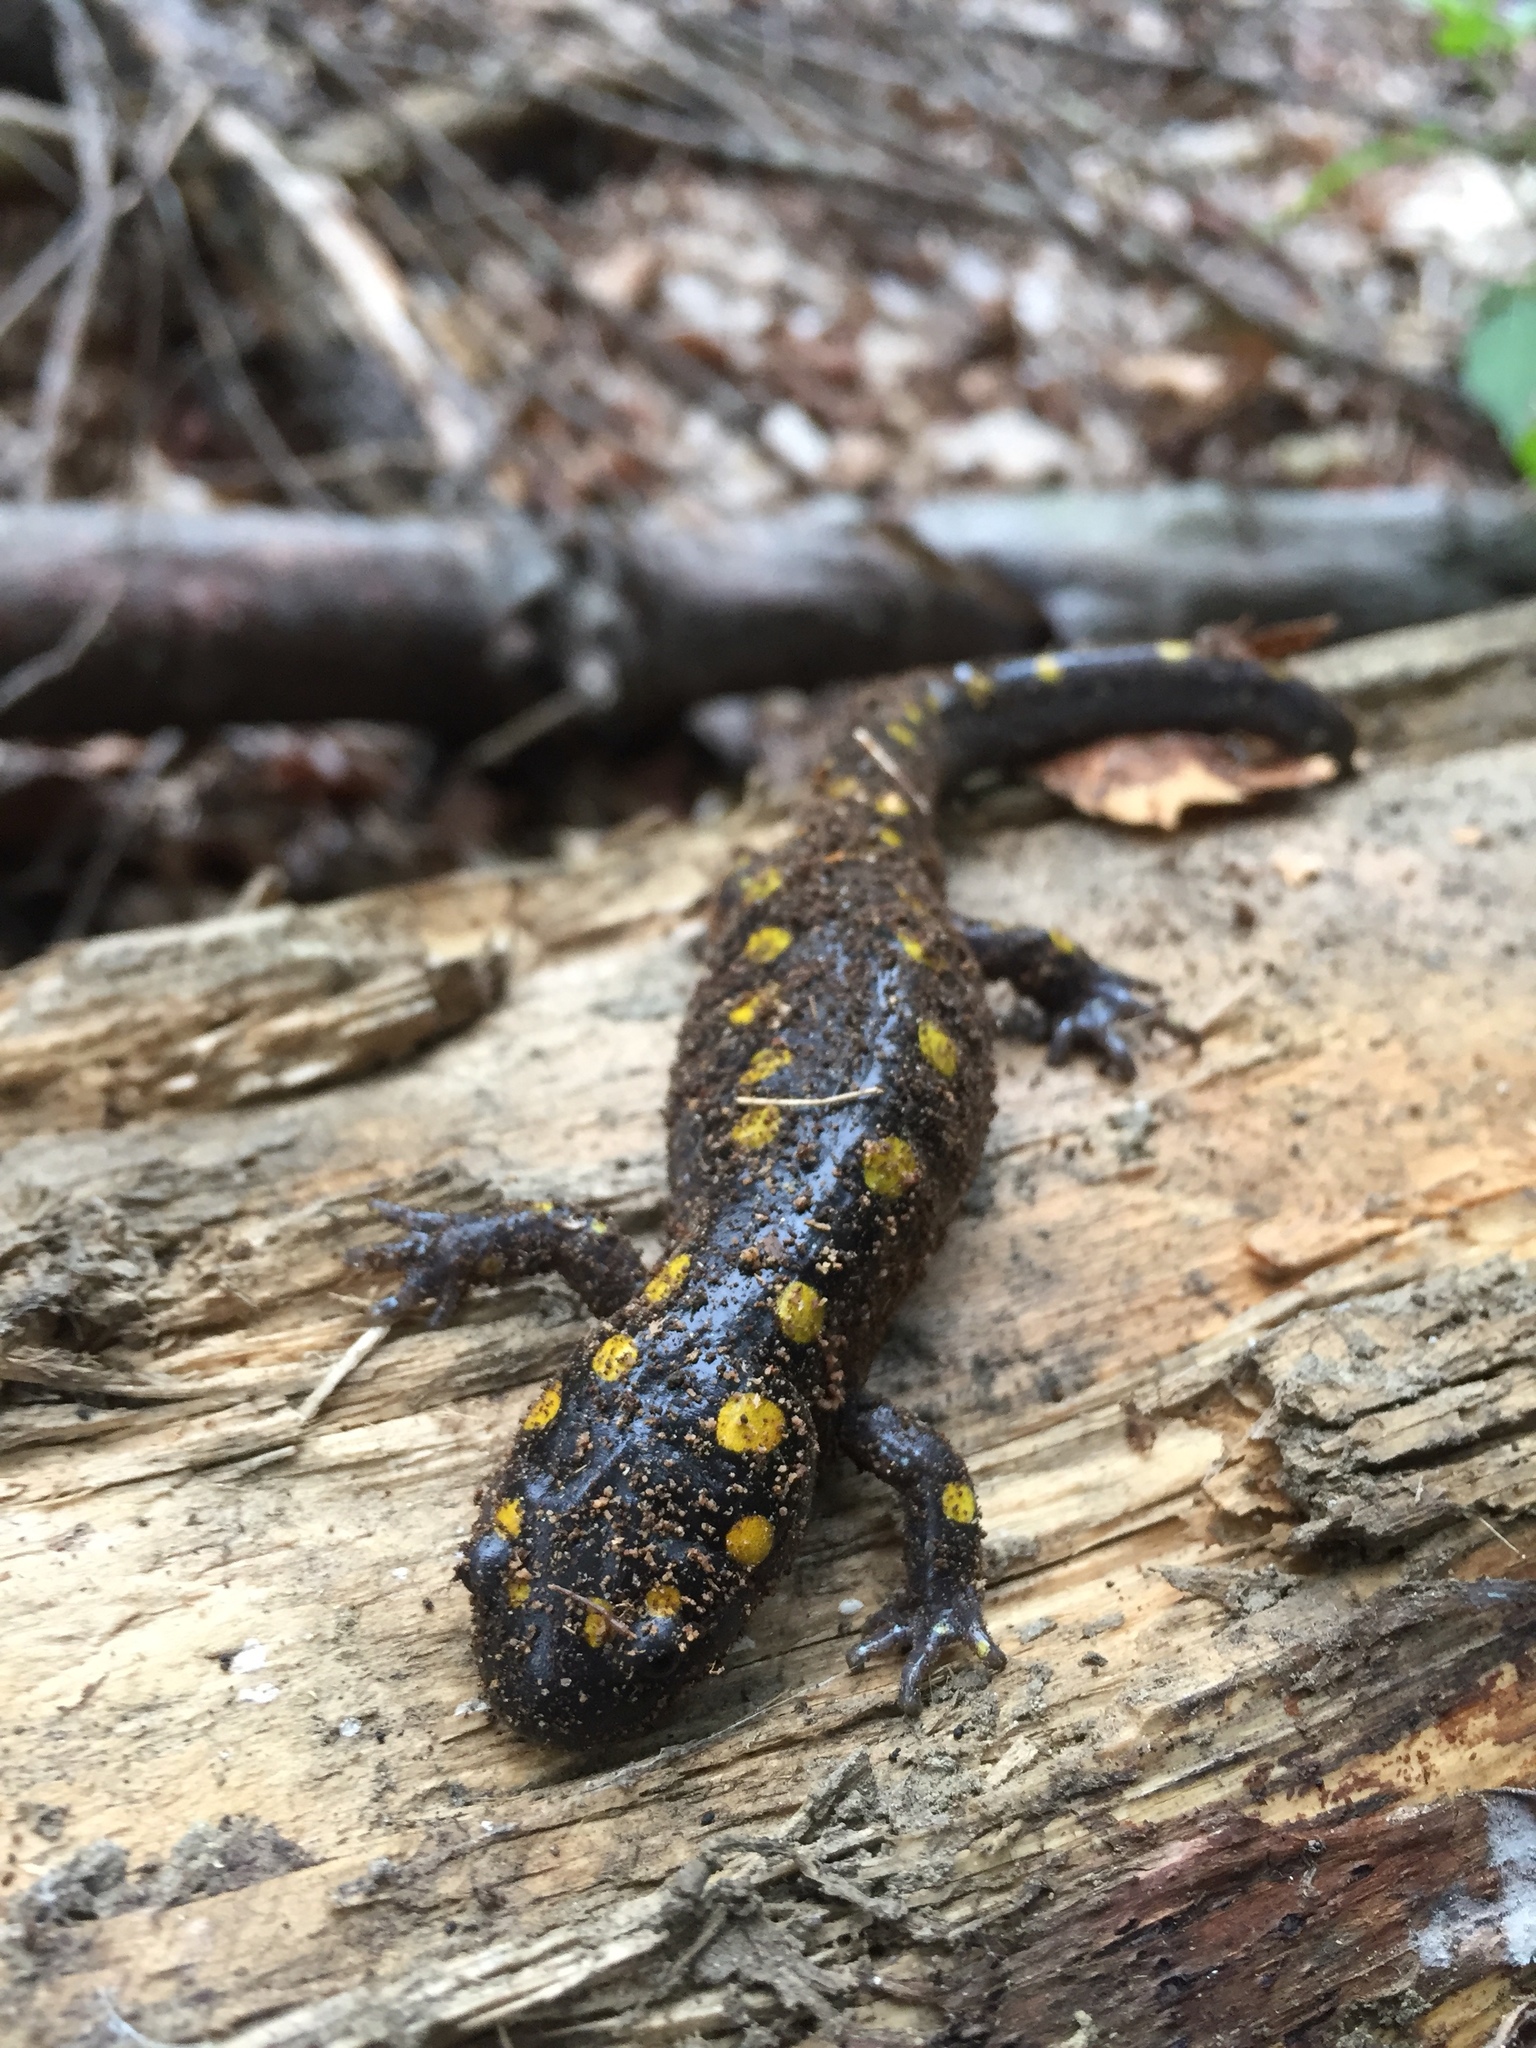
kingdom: Animalia
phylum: Chordata
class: Amphibia
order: Caudata
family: Ambystomatidae
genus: Ambystoma
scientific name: Ambystoma maculatum
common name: Spotted salamander
